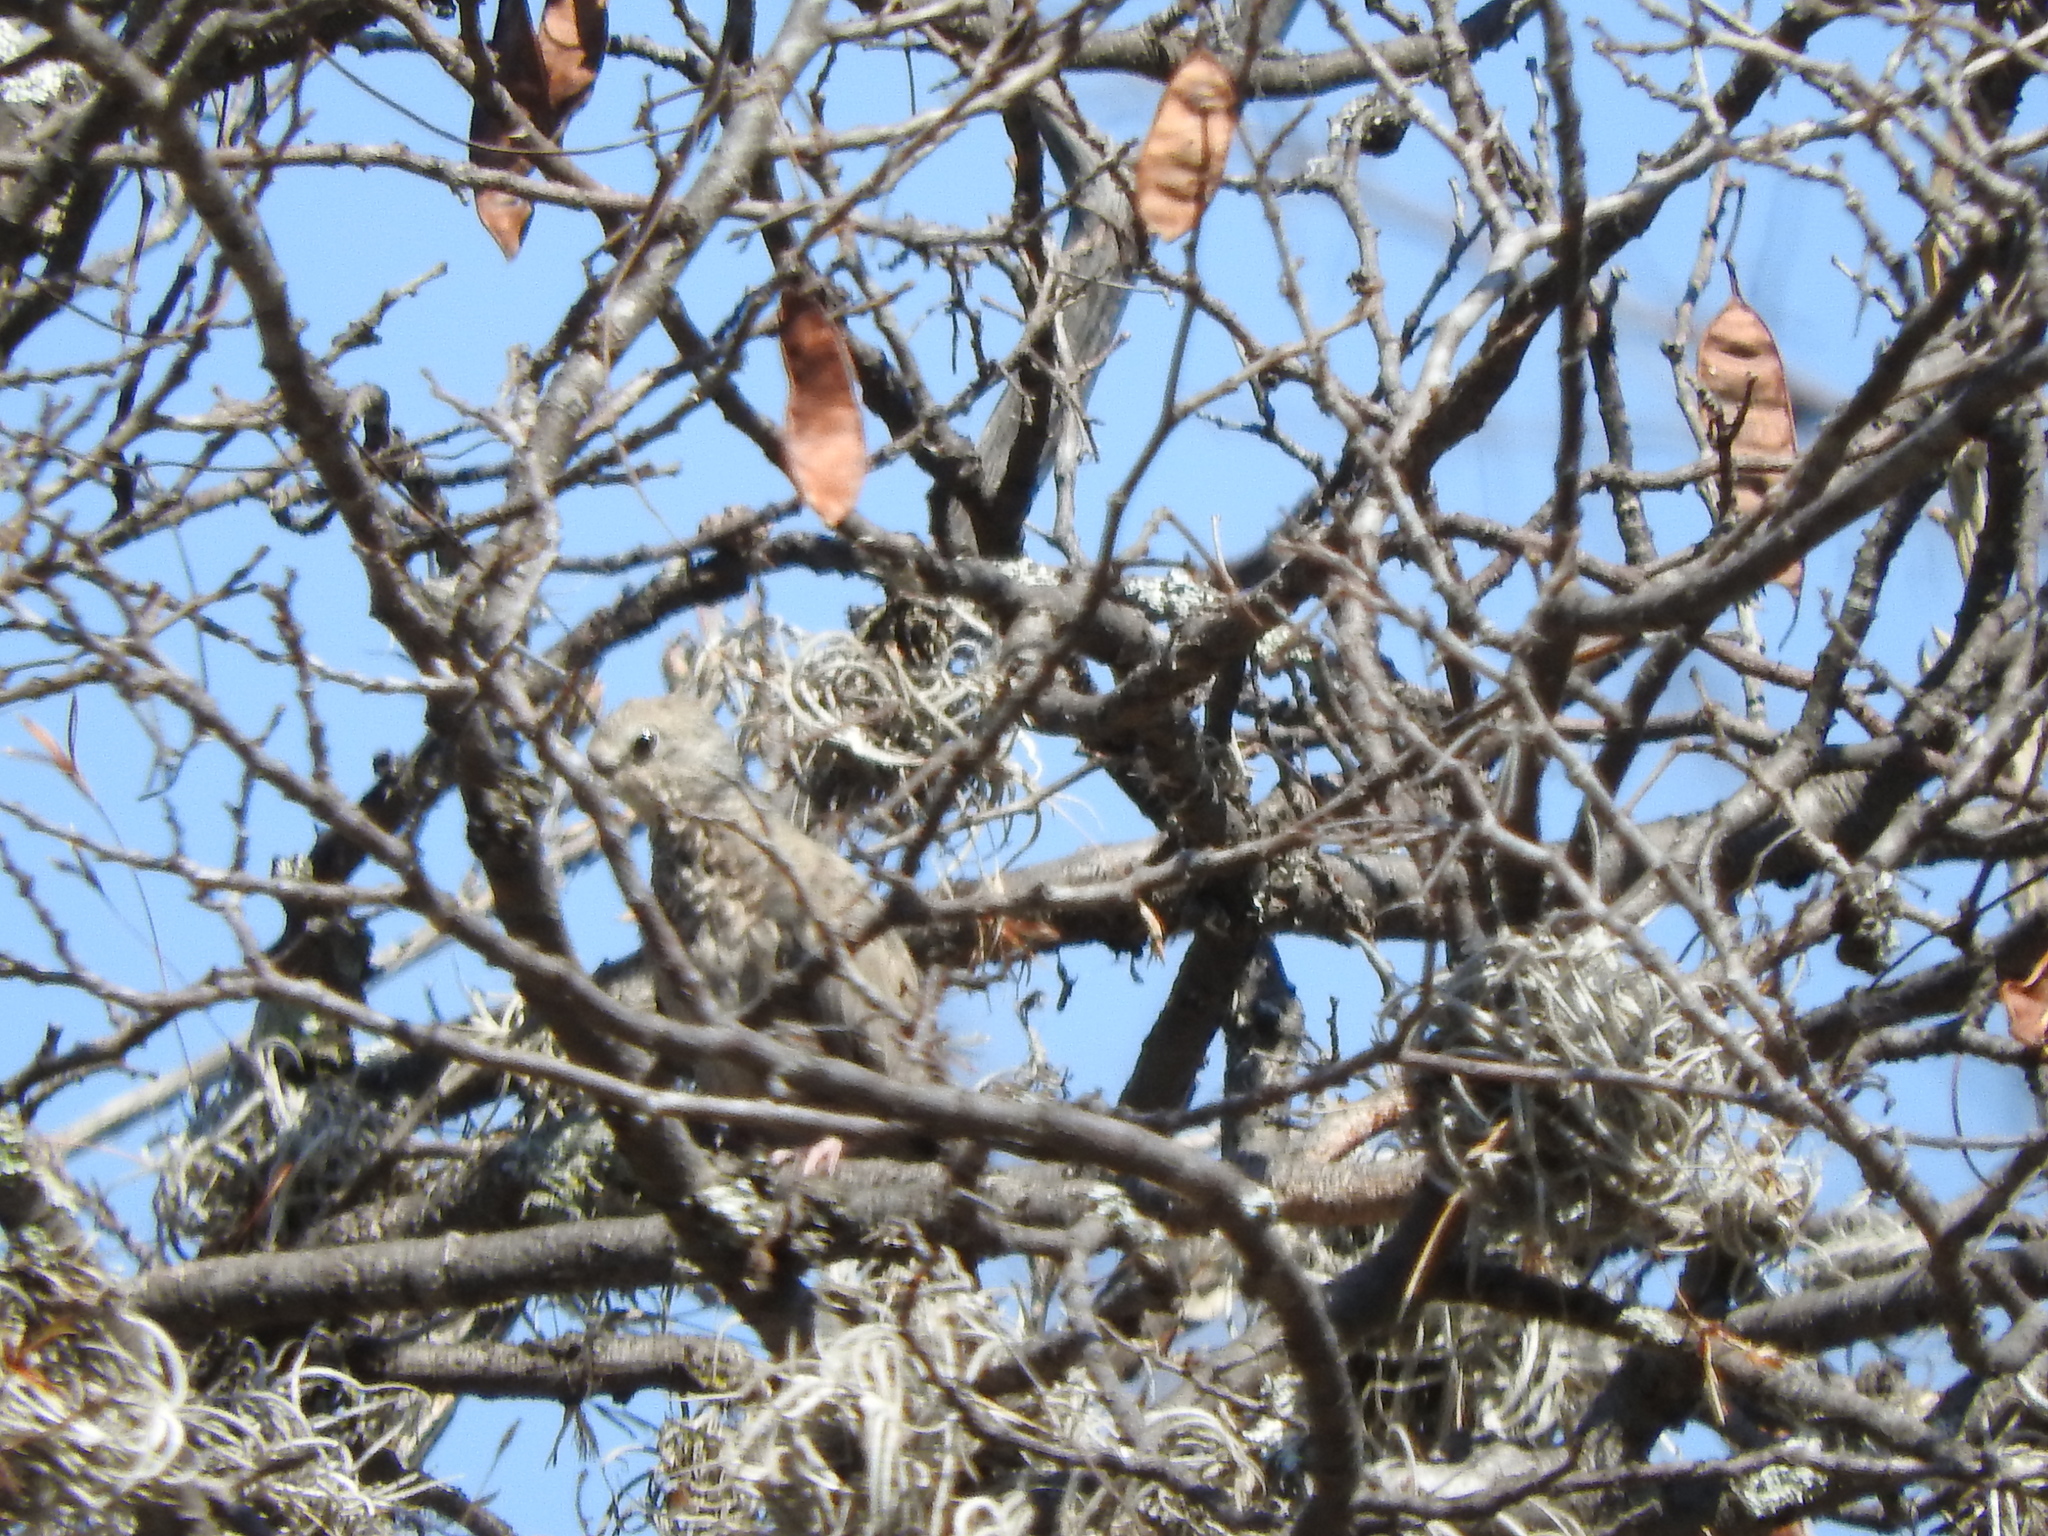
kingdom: Animalia
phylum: Chordata
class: Aves
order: Columbiformes
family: Columbidae
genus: Columbina
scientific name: Columbina passerina
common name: Common ground-dove
